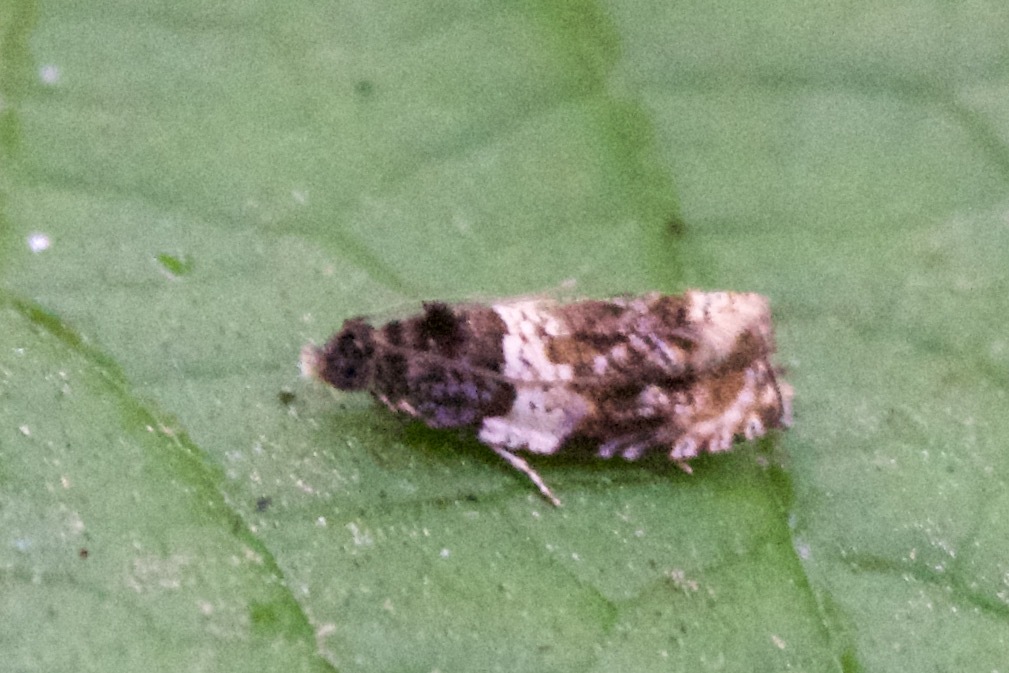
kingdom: Animalia
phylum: Arthropoda
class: Insecta
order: Lepidoptera
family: Tortricidae
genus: Olethreutes
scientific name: Olethreutes fasciatana
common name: Banded olethreutes moth
